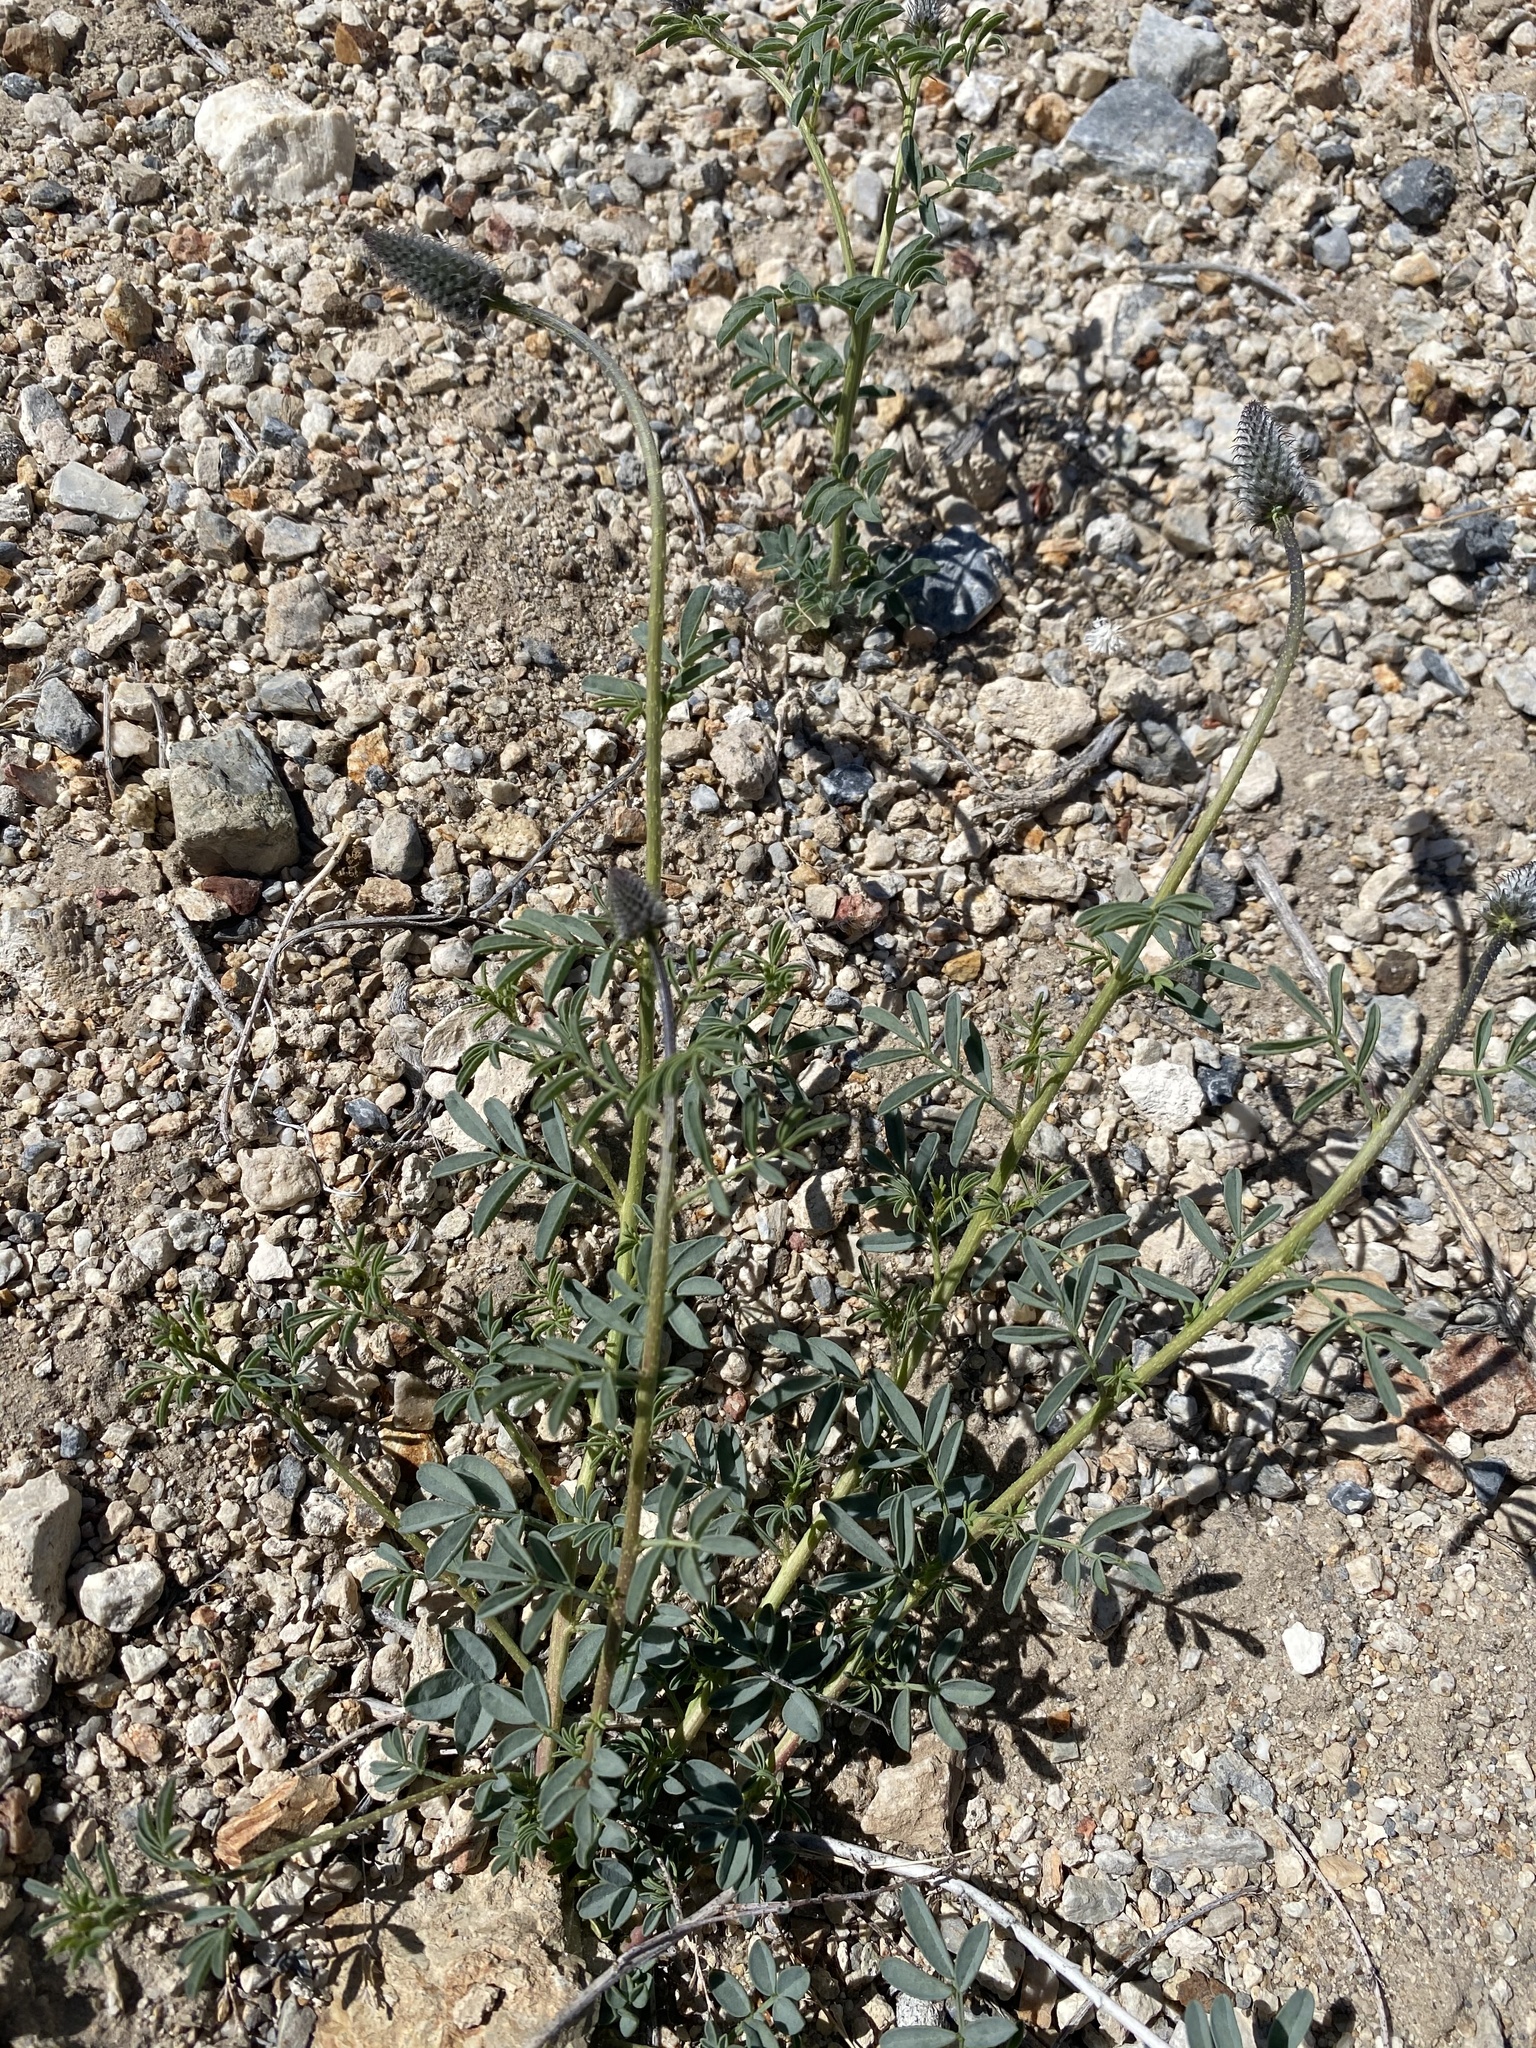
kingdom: Plantae
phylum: Tracheophyta
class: Magnoliopsida
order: Fabales
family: Fabaceae
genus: Dalea
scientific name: Dalea searlsiae
